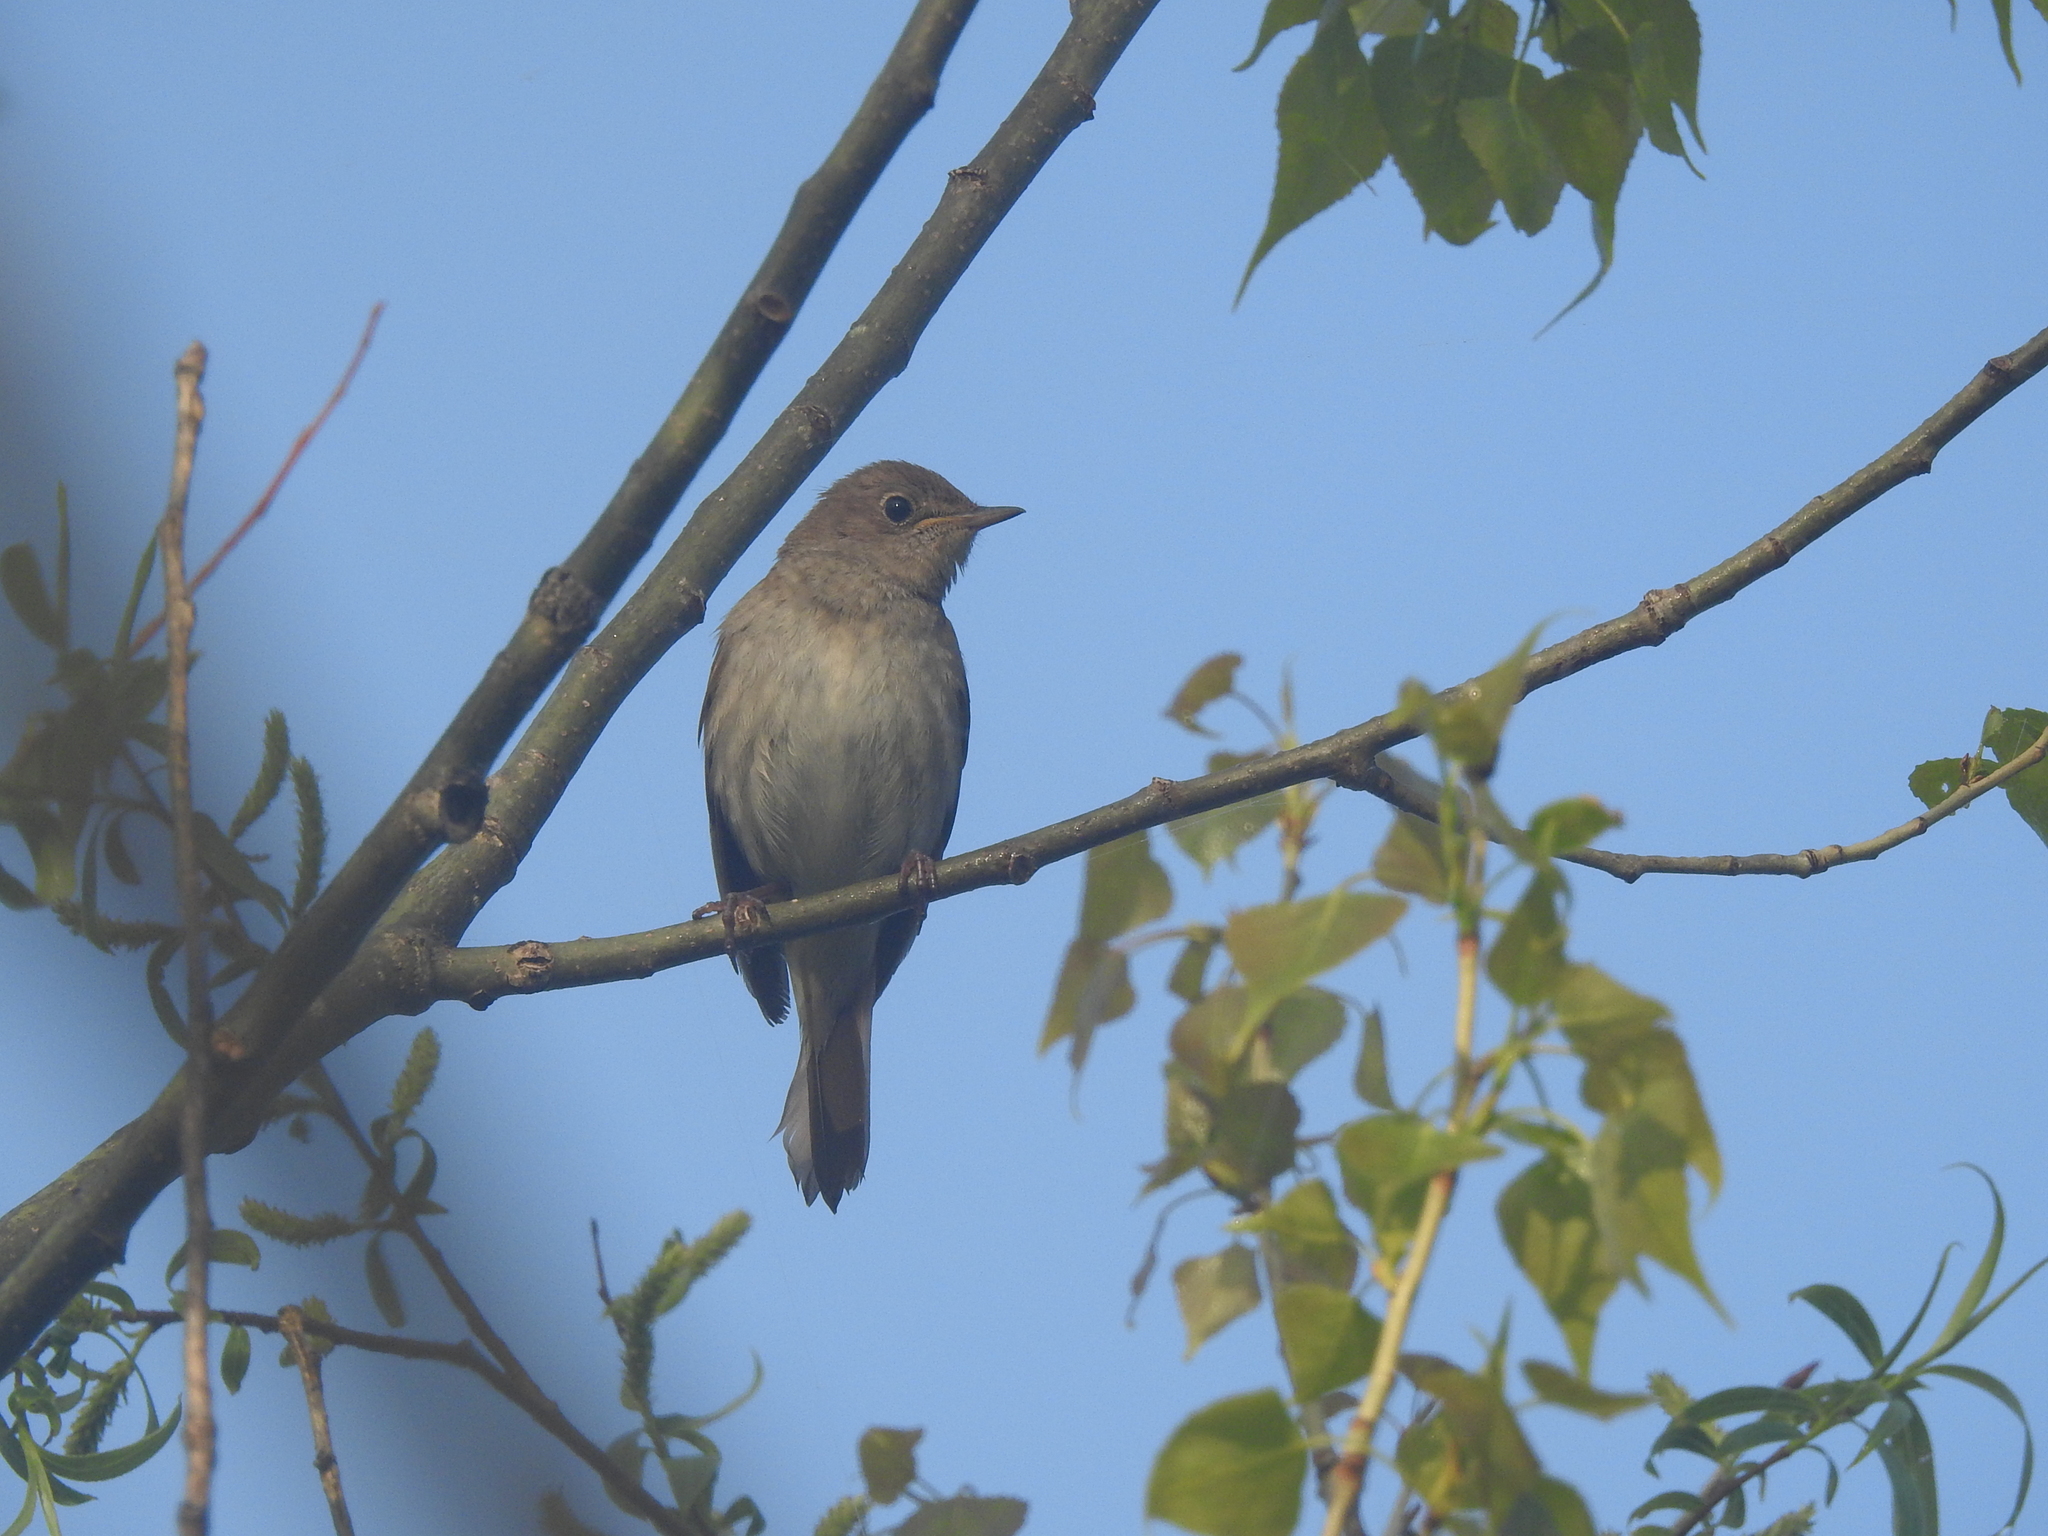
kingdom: Animalia
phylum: Chordata
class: Aves
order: Passeriformes
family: Muscicapidae
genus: Luscinia
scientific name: Luscinia luscinia
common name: Thrush nightingale
